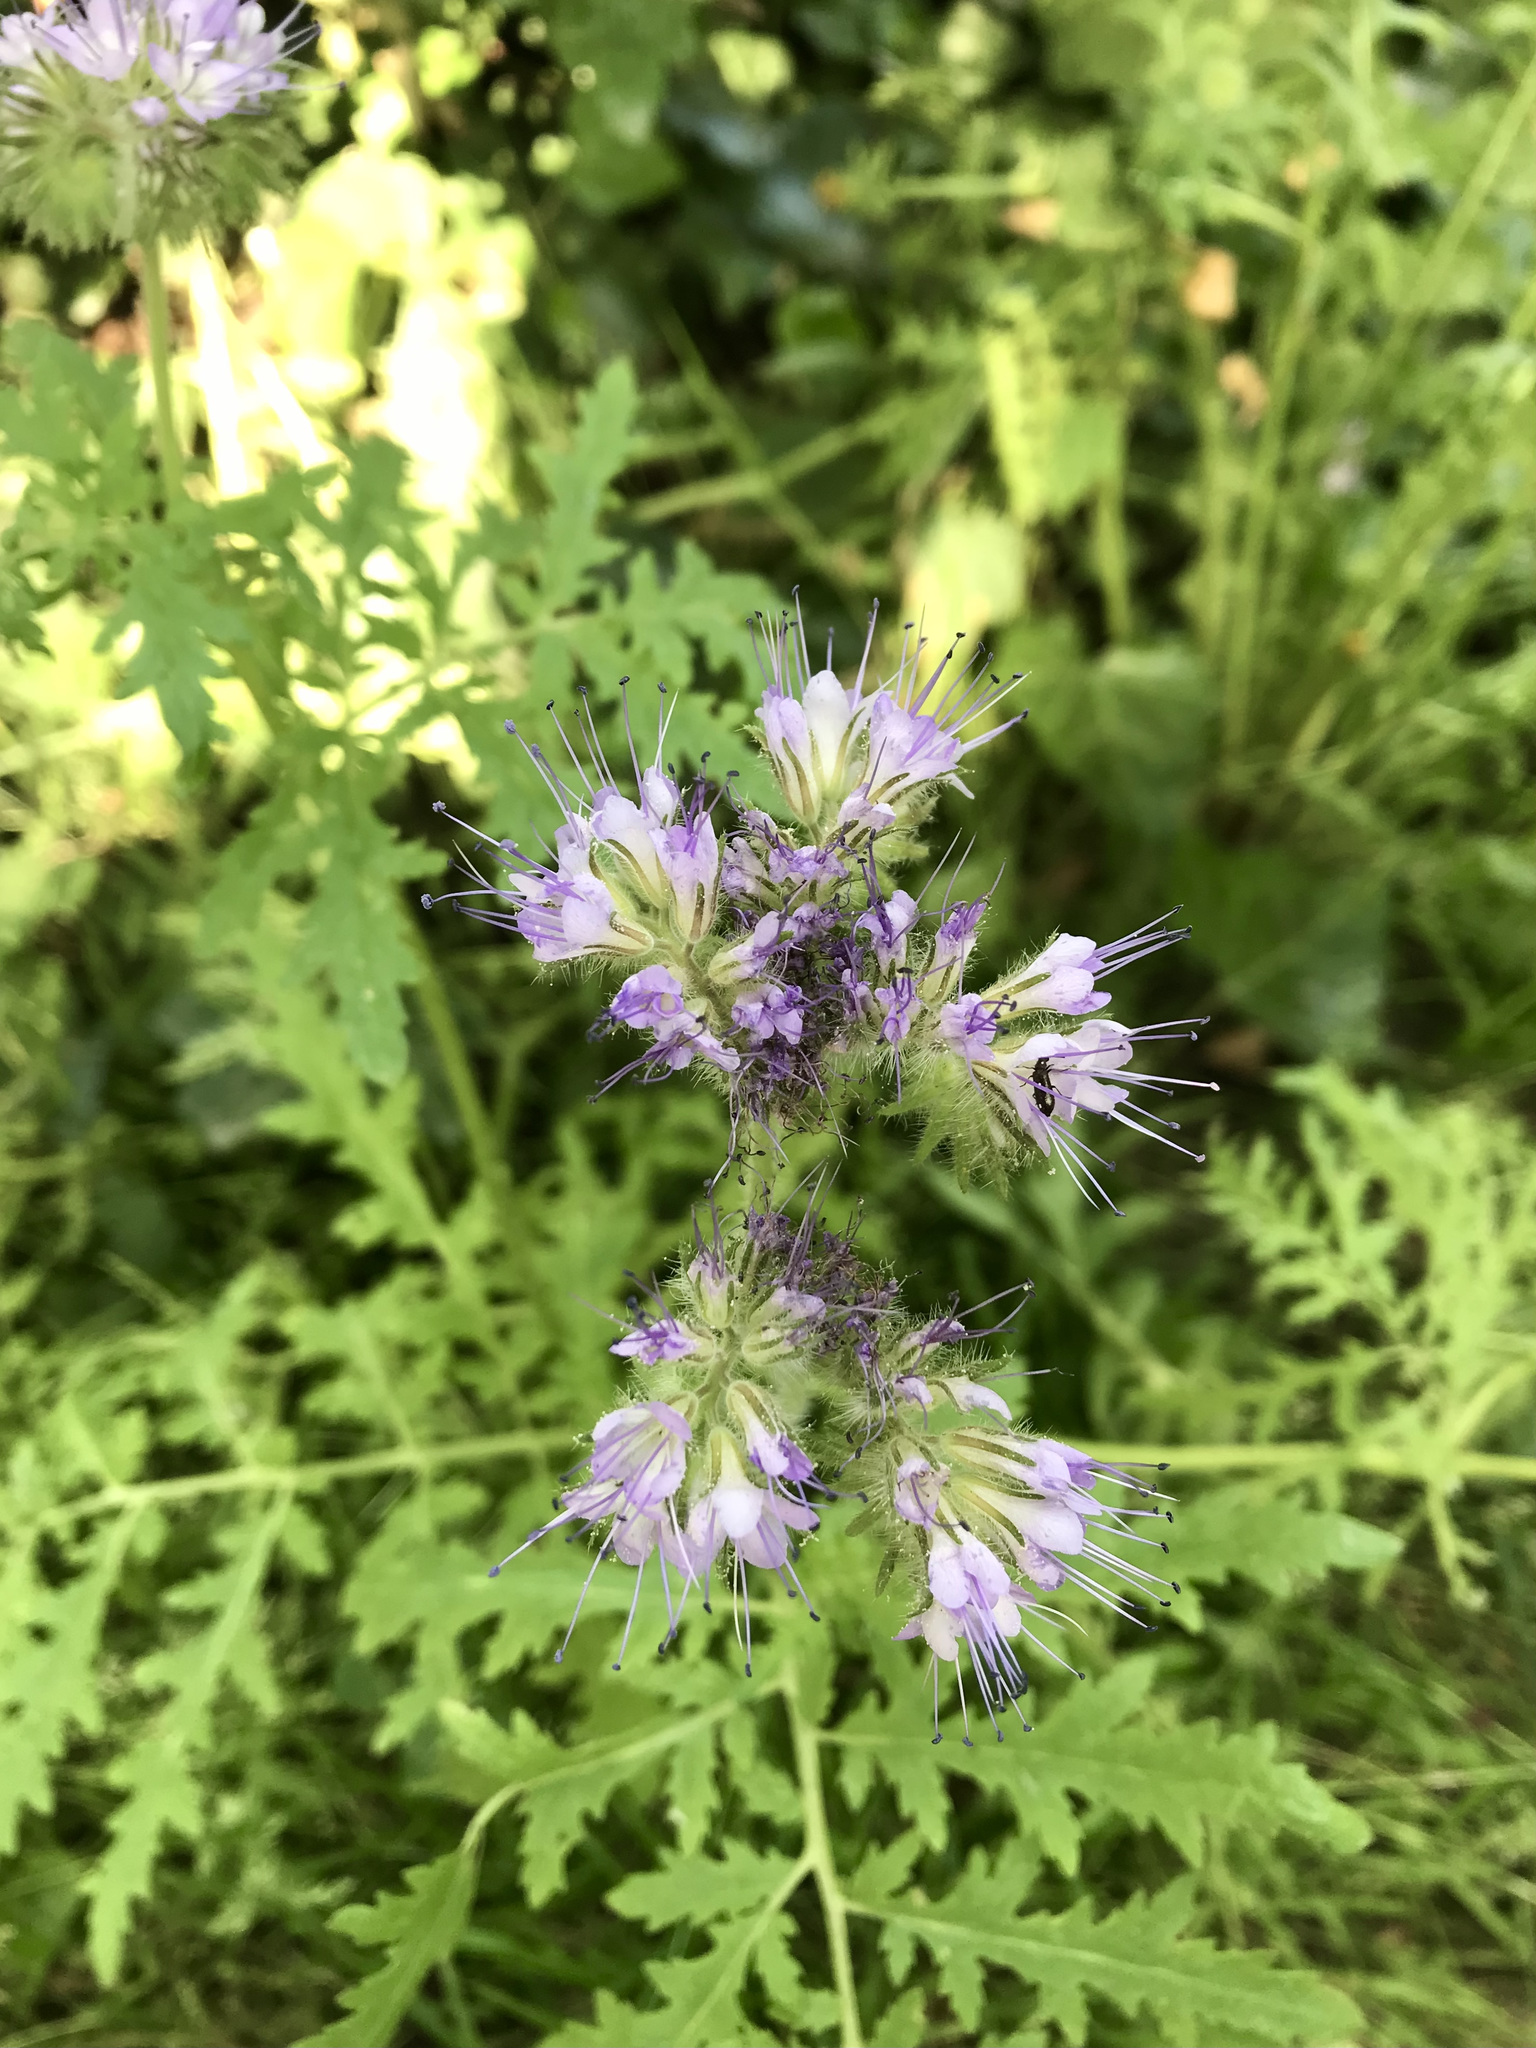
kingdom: Plantae
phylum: Tracheophyta
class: Magnoliopsida
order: Boraginales
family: Hydrophyllaceae
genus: Phacelia
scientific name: Phacelia tanacetifolia
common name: Phacelia
